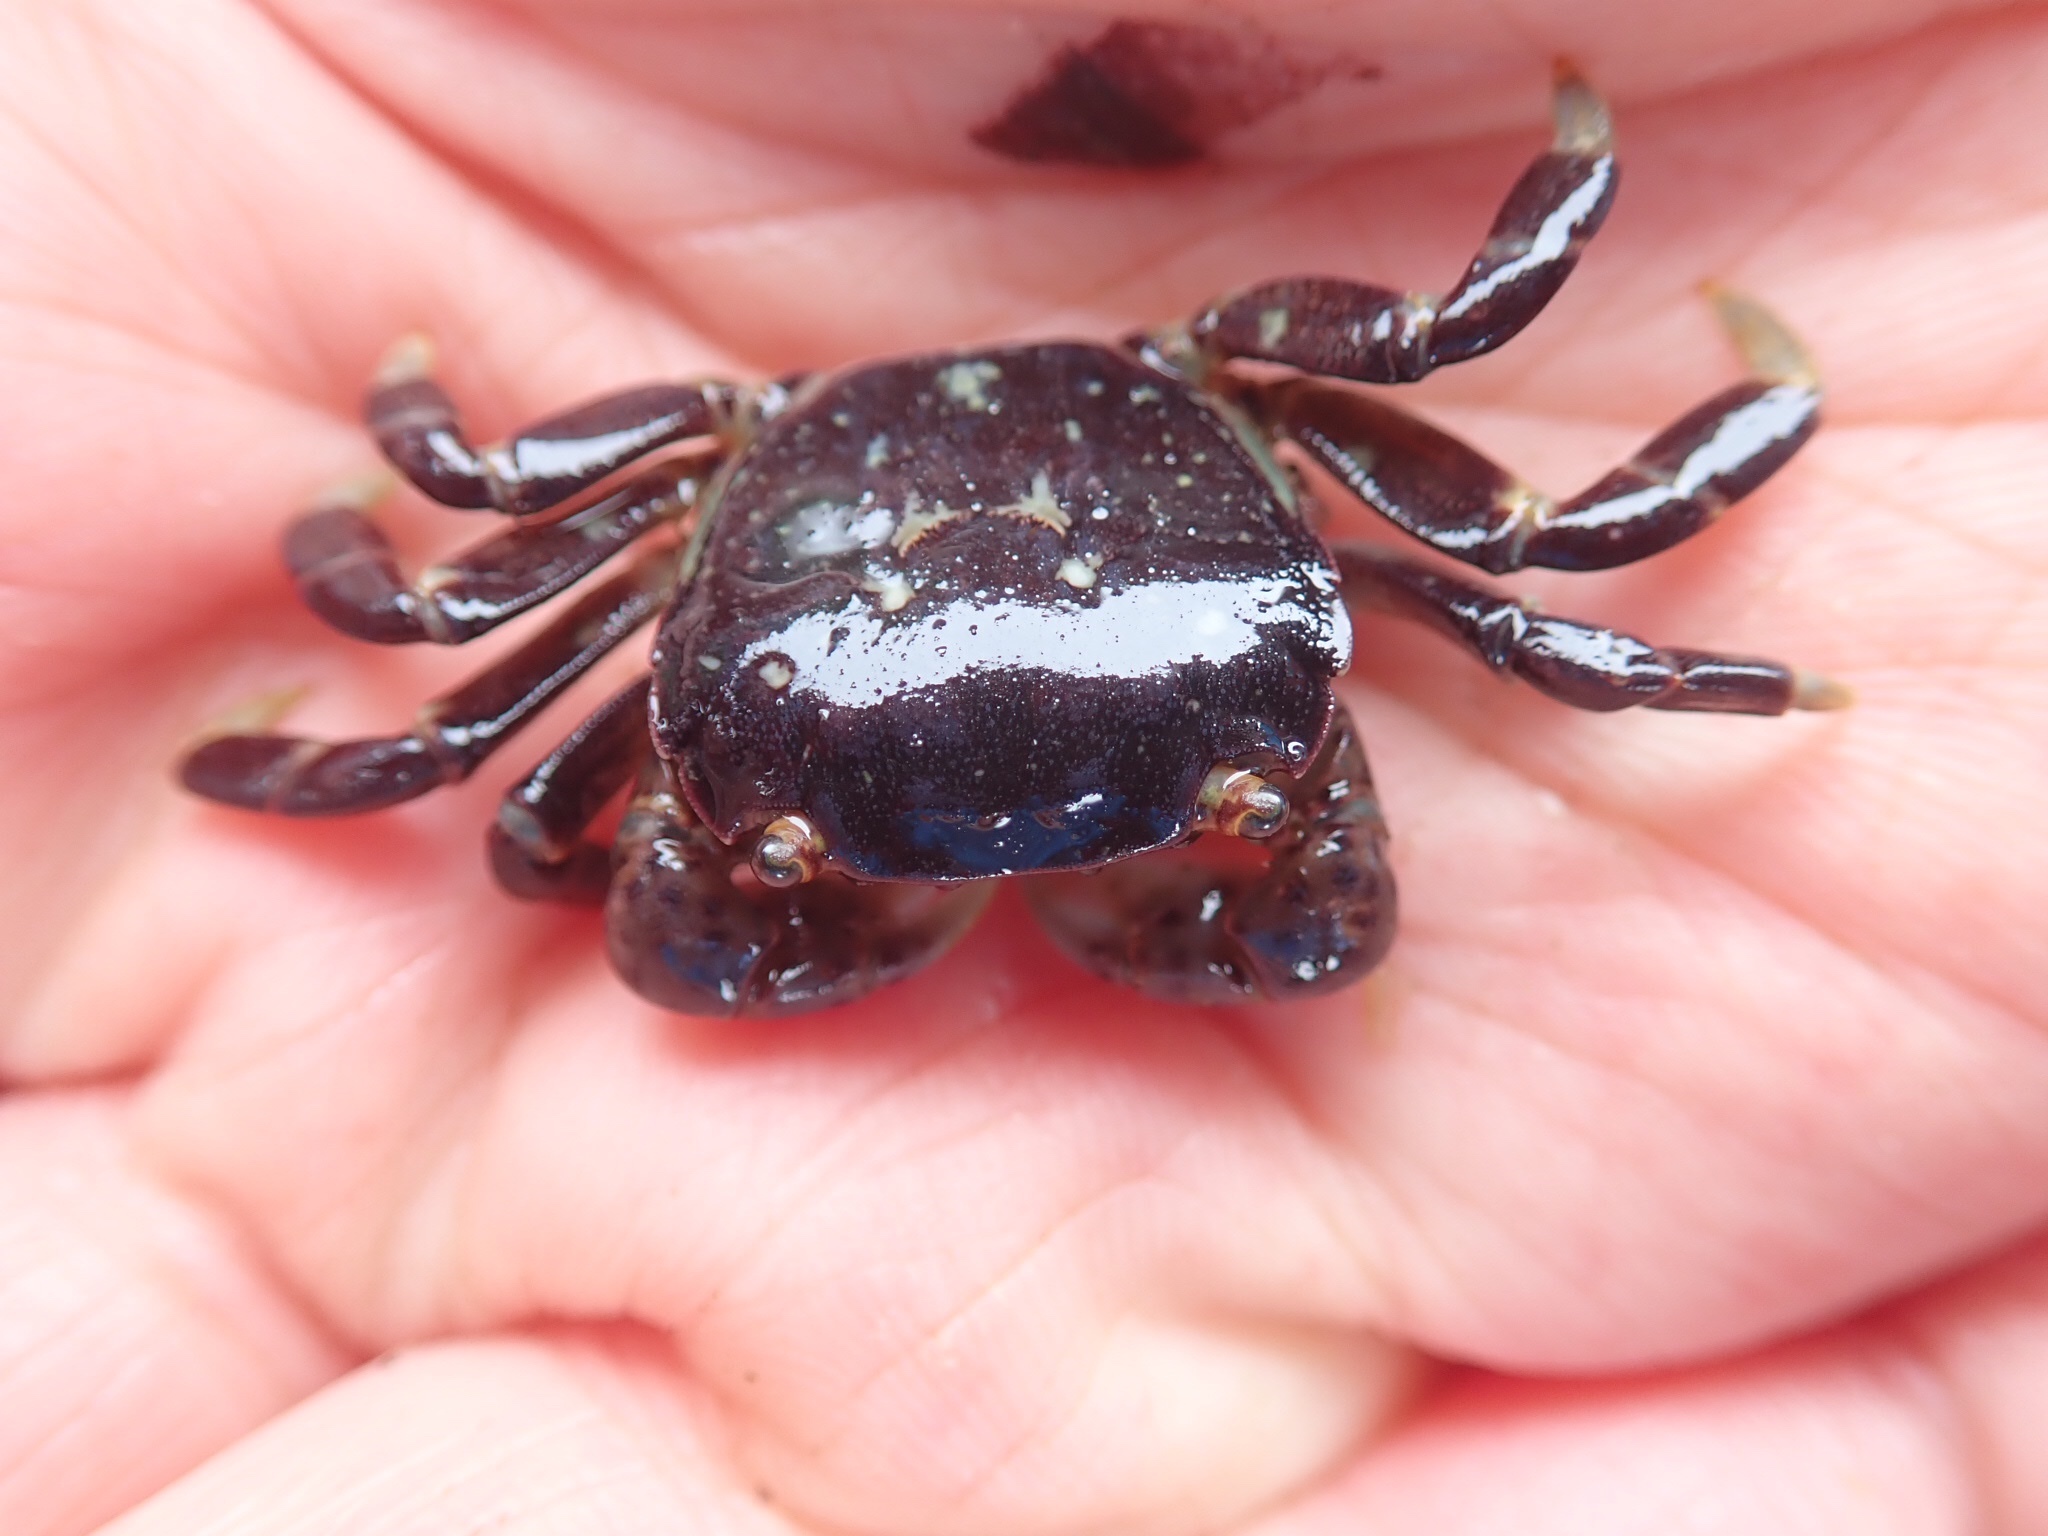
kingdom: Animalia
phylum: Arthropoda
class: Malacostraca
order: Decapoda
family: Varunidae
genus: Hemigrapsus
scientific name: Hemigrapsus nudus
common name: Purple shore crab
